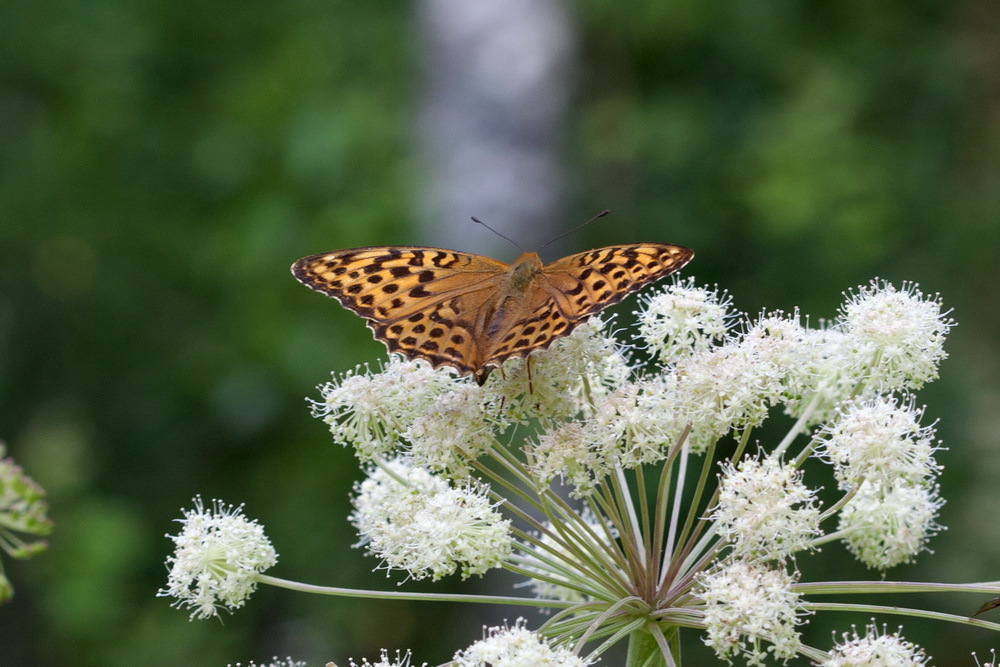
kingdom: Animalia
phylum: Arthropoda
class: Insecta
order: Lepidoptera
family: Nymphalidae
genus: Argynnis
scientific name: Argynnis paphia
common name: Silver-washed fritillary
